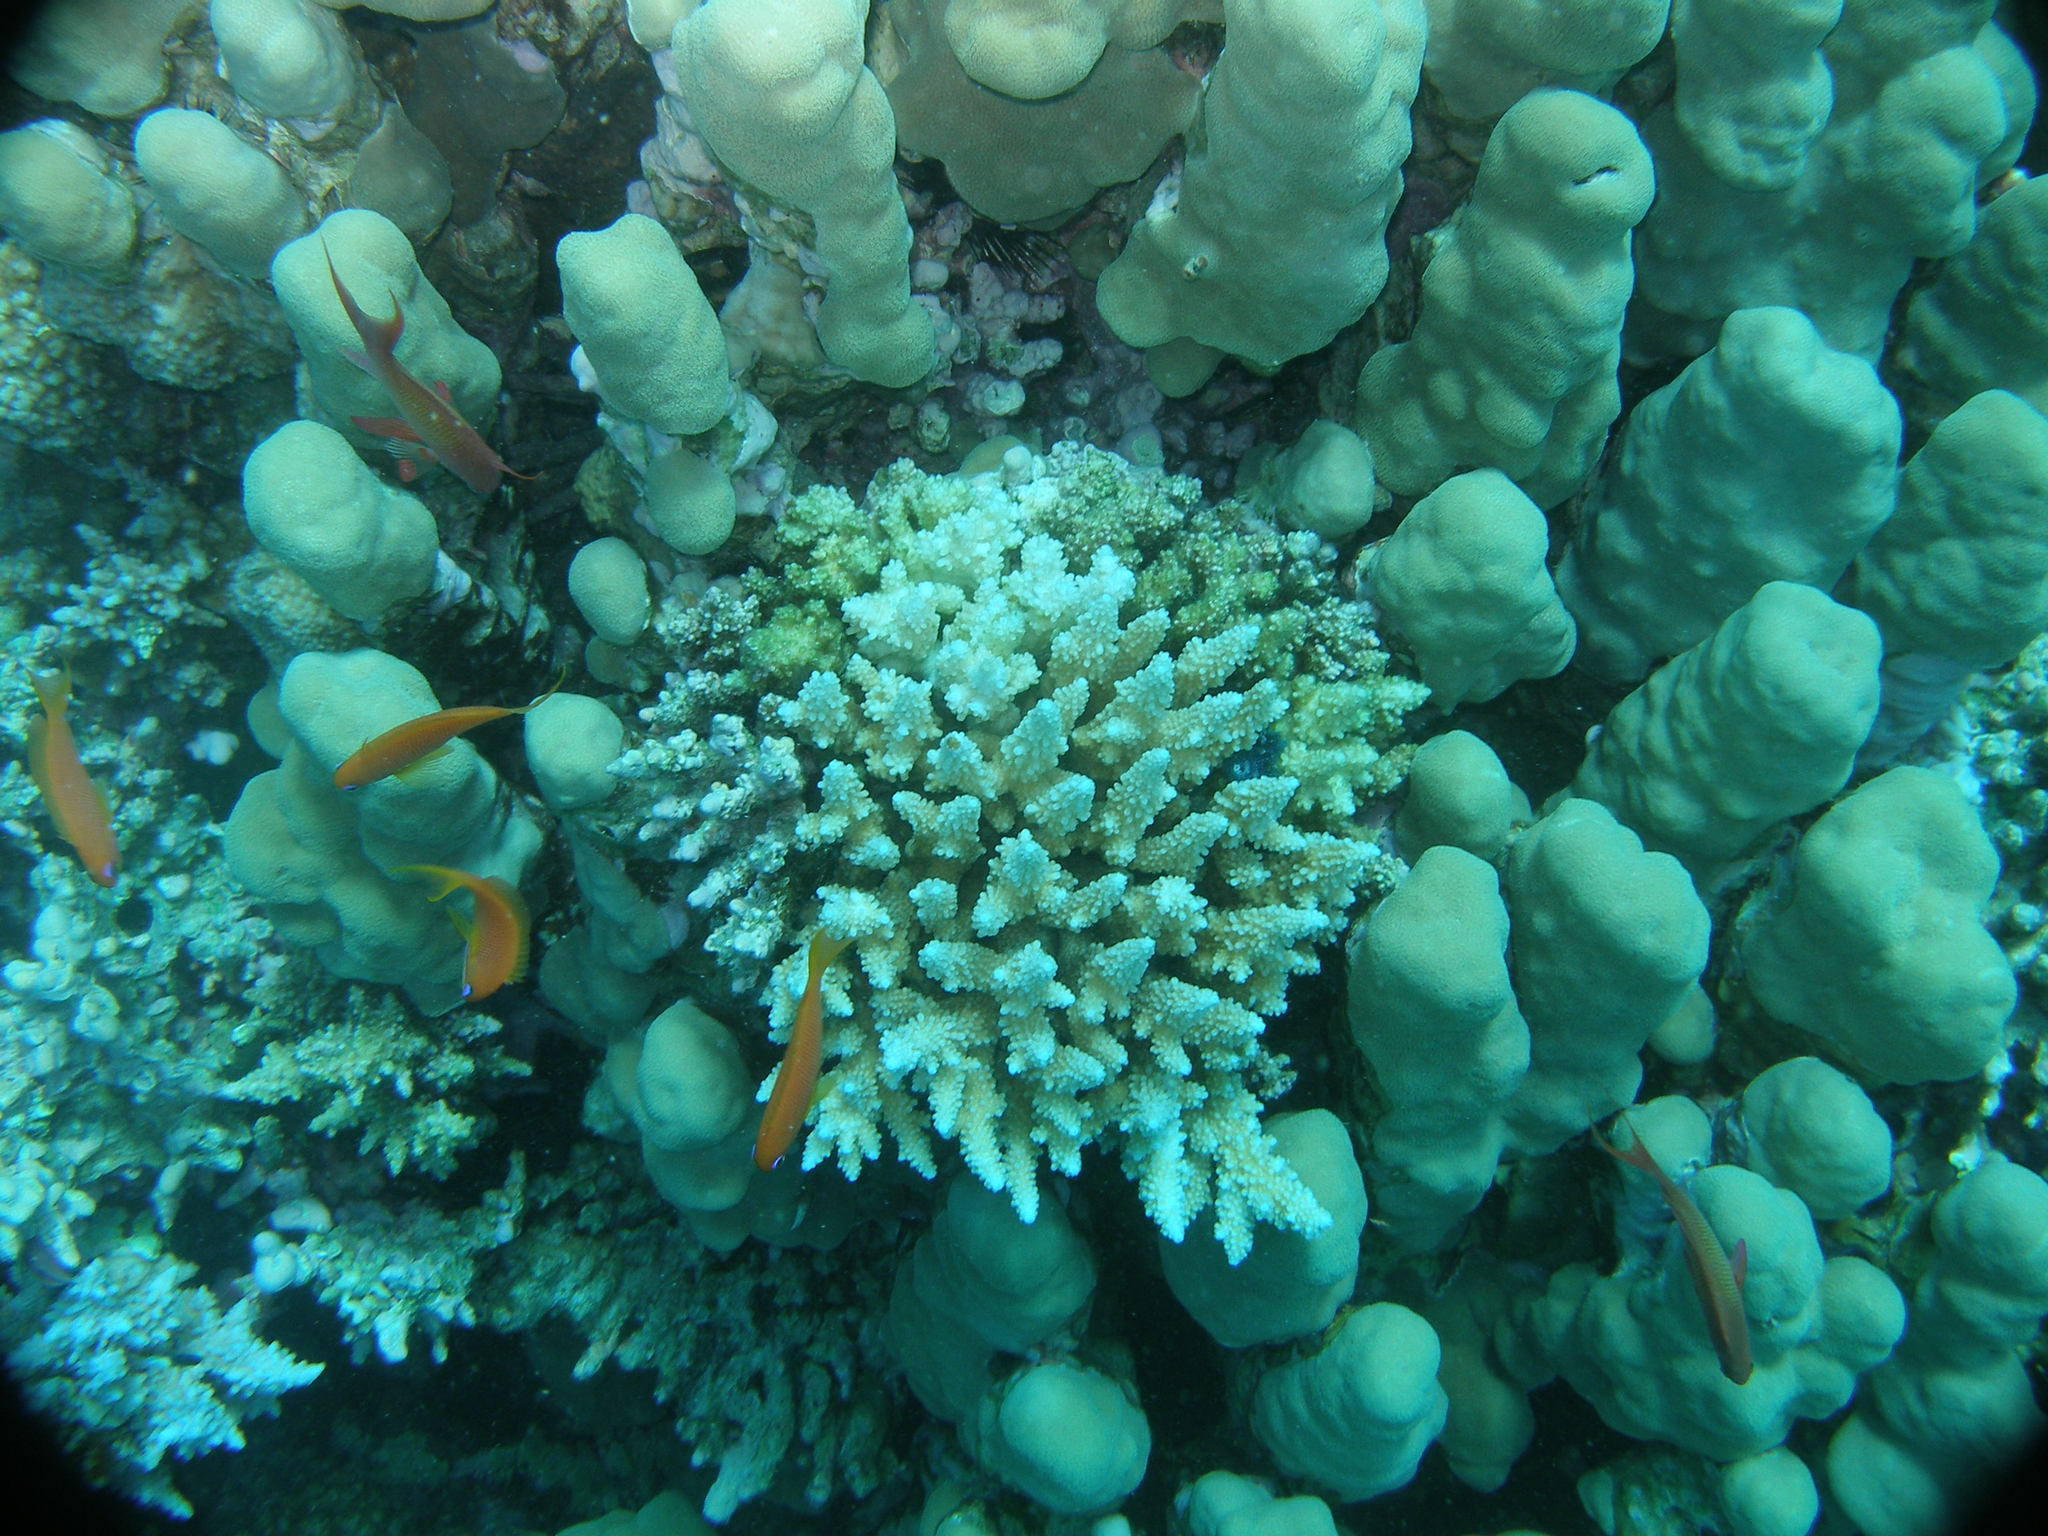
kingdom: Animalia
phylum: Cnidaria
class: Anthozoa
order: Scleractinia
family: Acroporidae
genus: Acropora
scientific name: Acropora gemmifera
